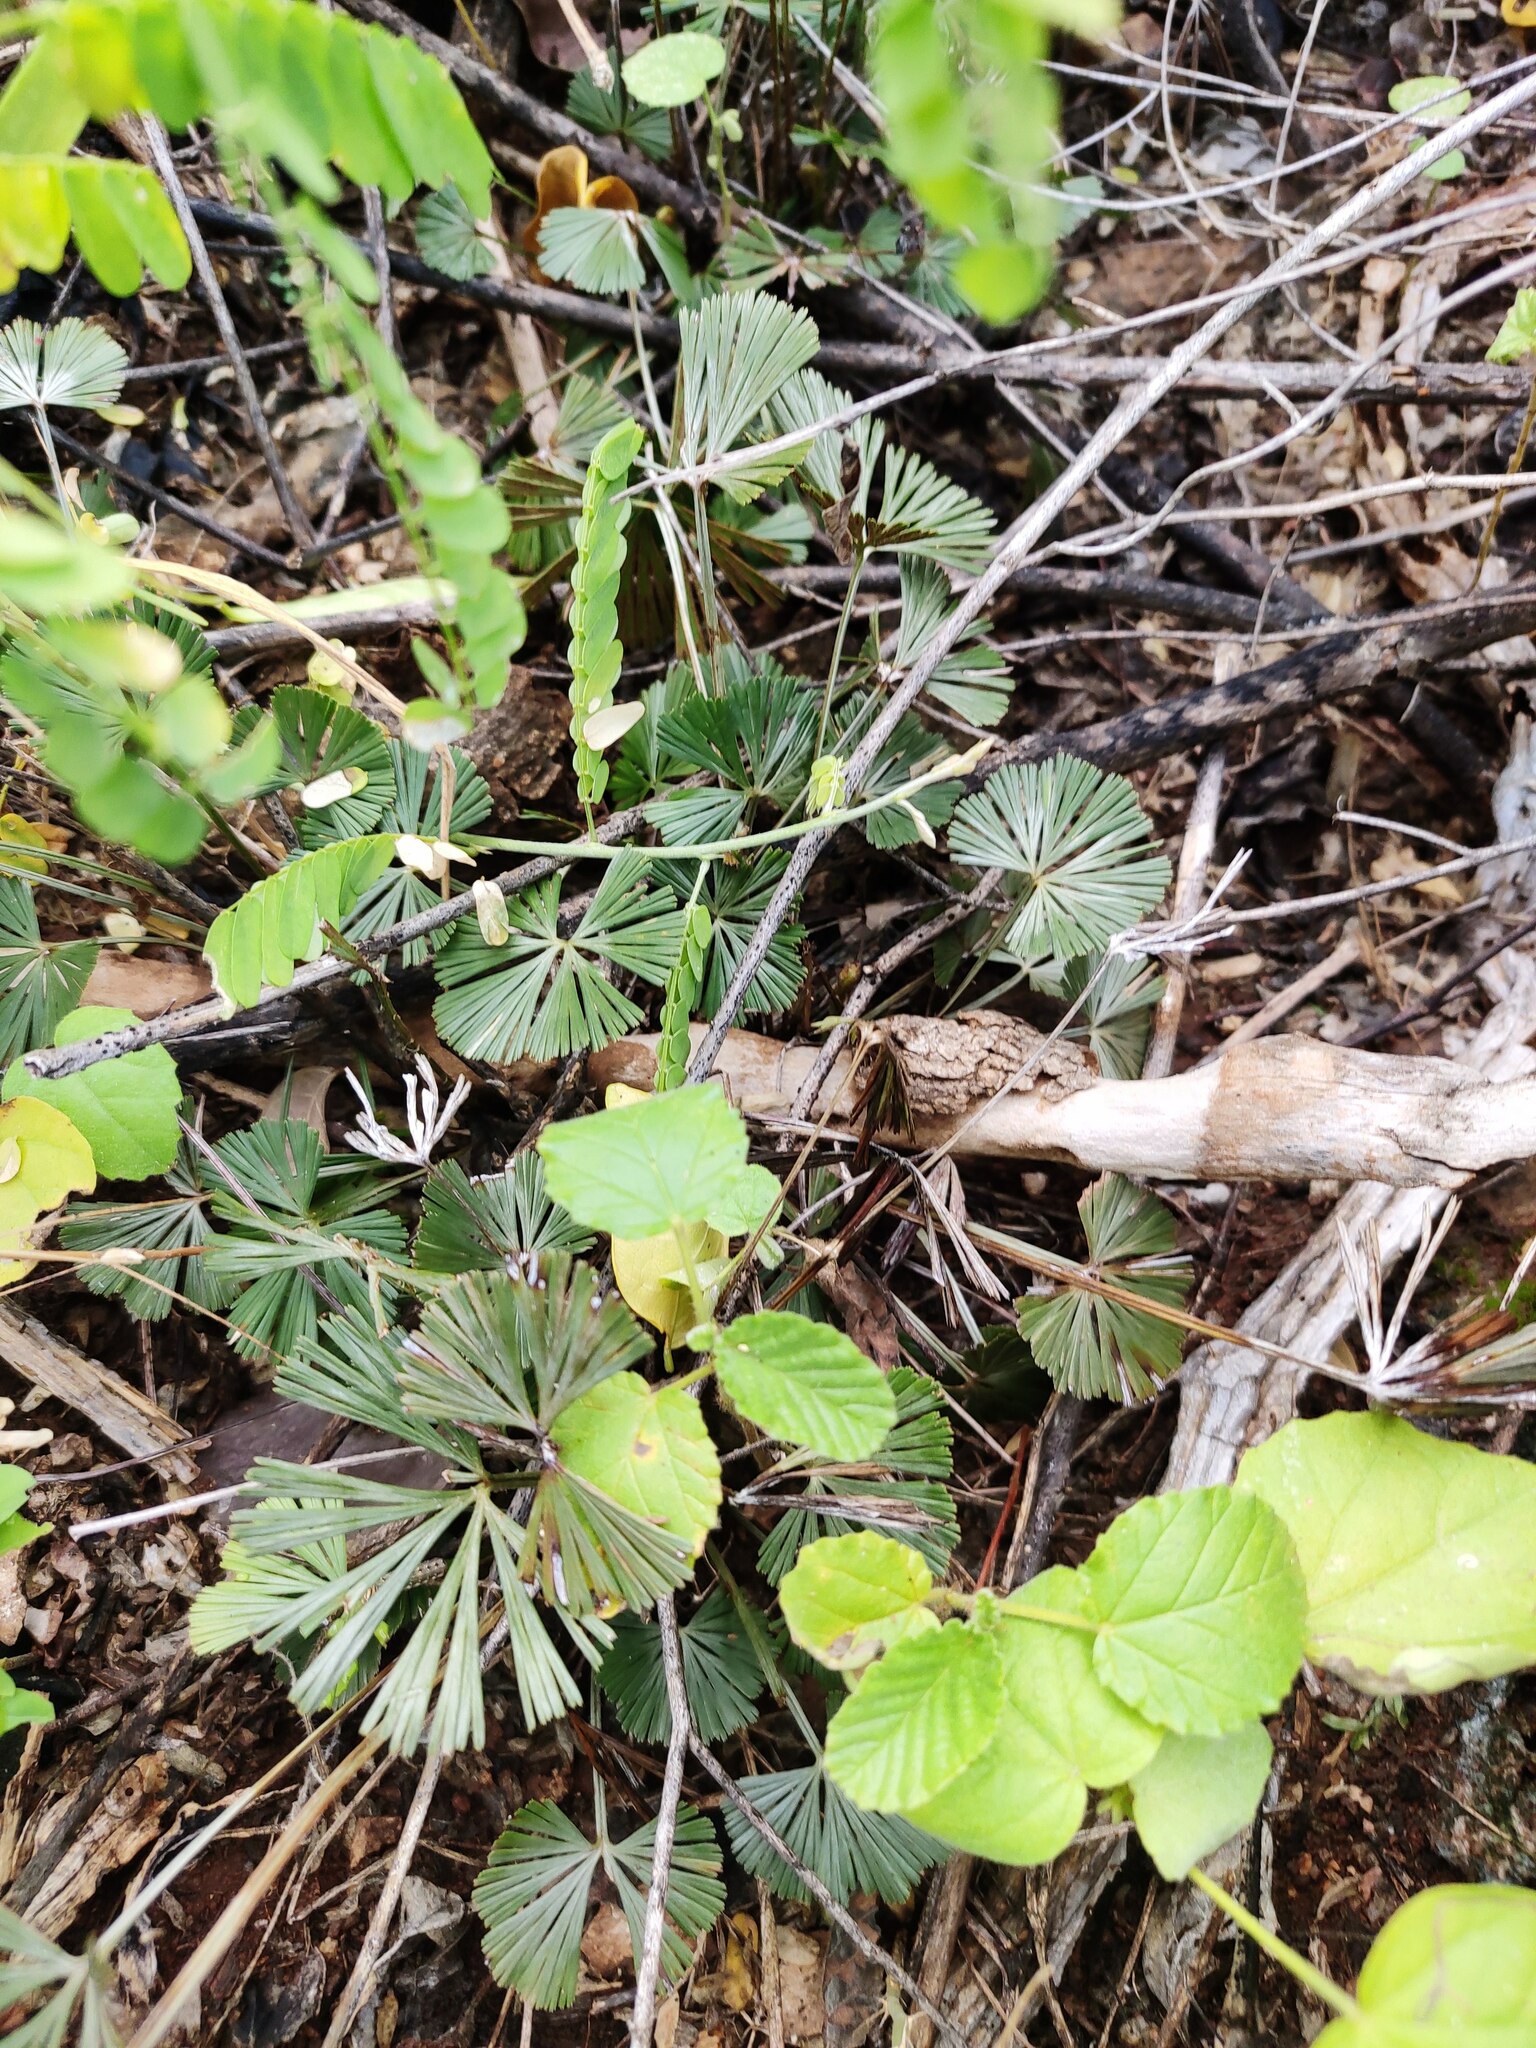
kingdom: Plantae
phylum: Tracheophyta
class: Polypodiopsida
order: Polypodiales
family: Pteridaceae
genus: Actiniopteris
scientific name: Actiniopteris radiata
